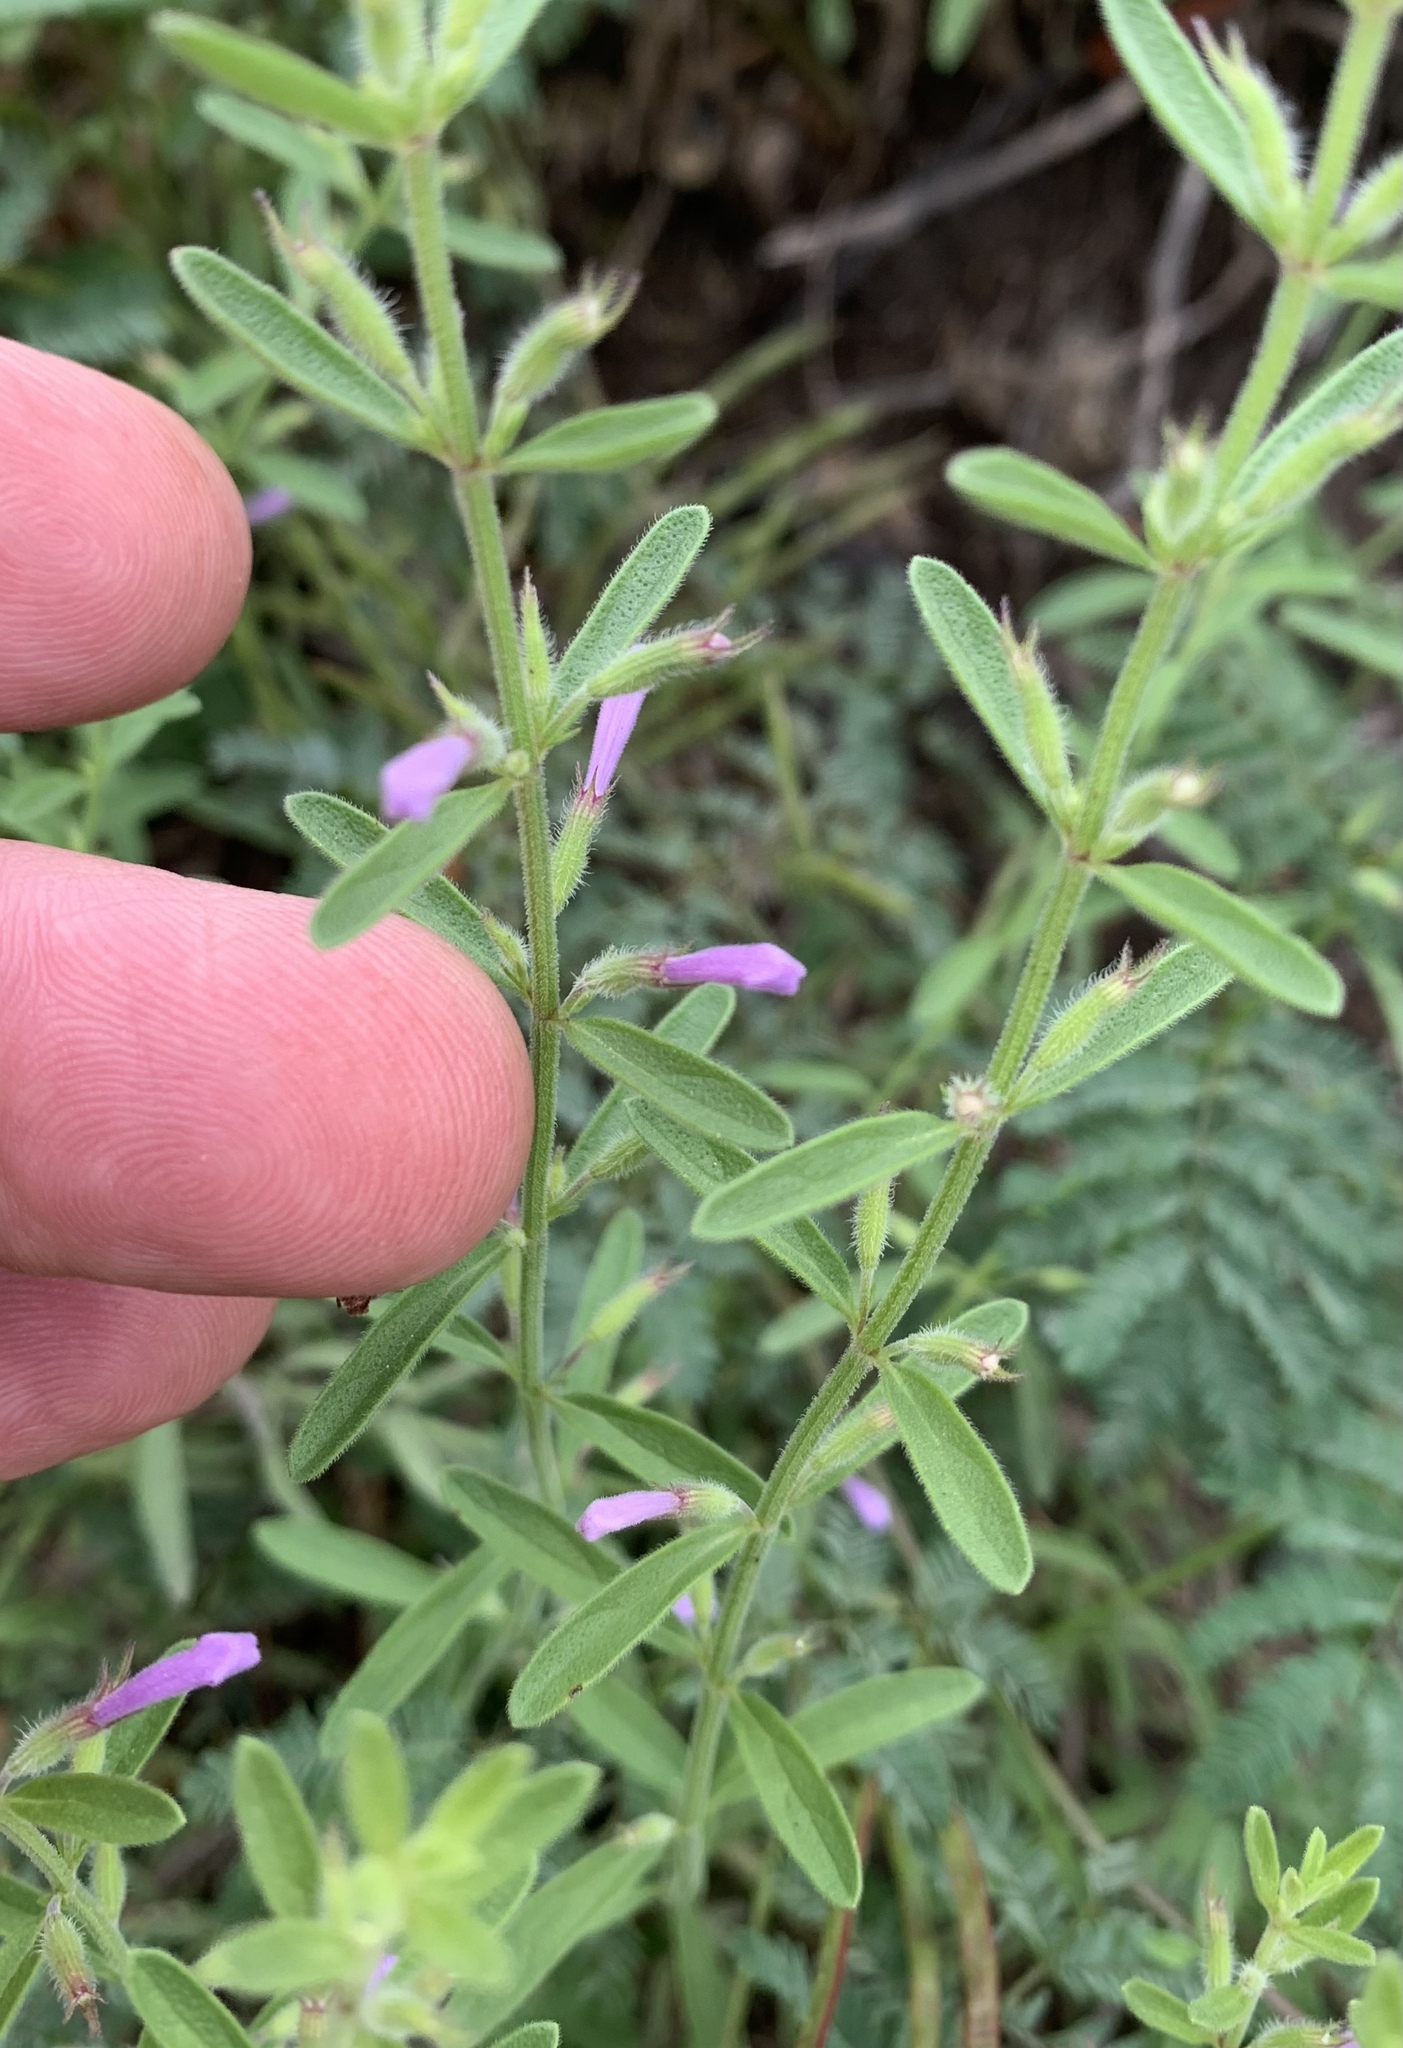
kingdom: Plantae
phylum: Tracheophyta
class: Magnoliopsida
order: Lamiales
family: Lamiaceae
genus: Hedeoma
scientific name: Hedeoma reverchonii
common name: Reverchon's false penny-royal
